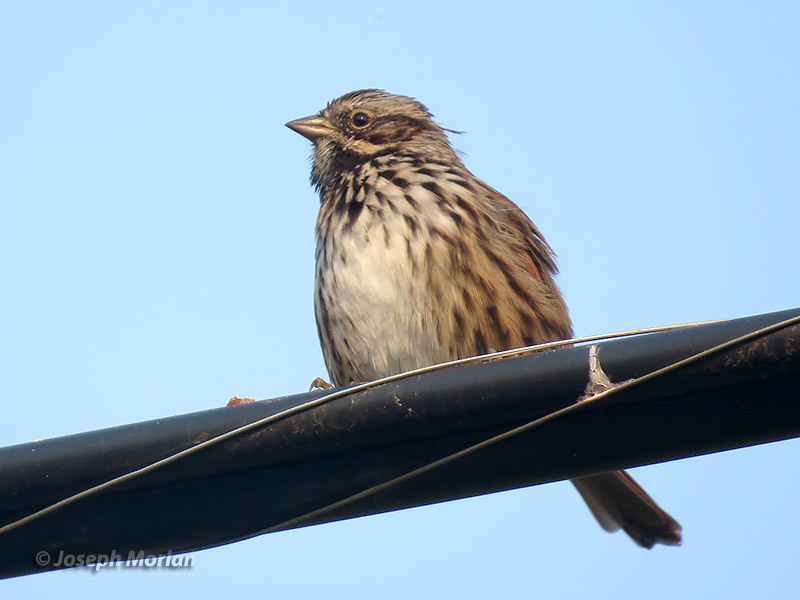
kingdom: Animalia
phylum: Chordata
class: Aves
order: Passeriformes
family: Passerellidae
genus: Melospiza
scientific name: Melospiza melodia
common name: Song sparrow
